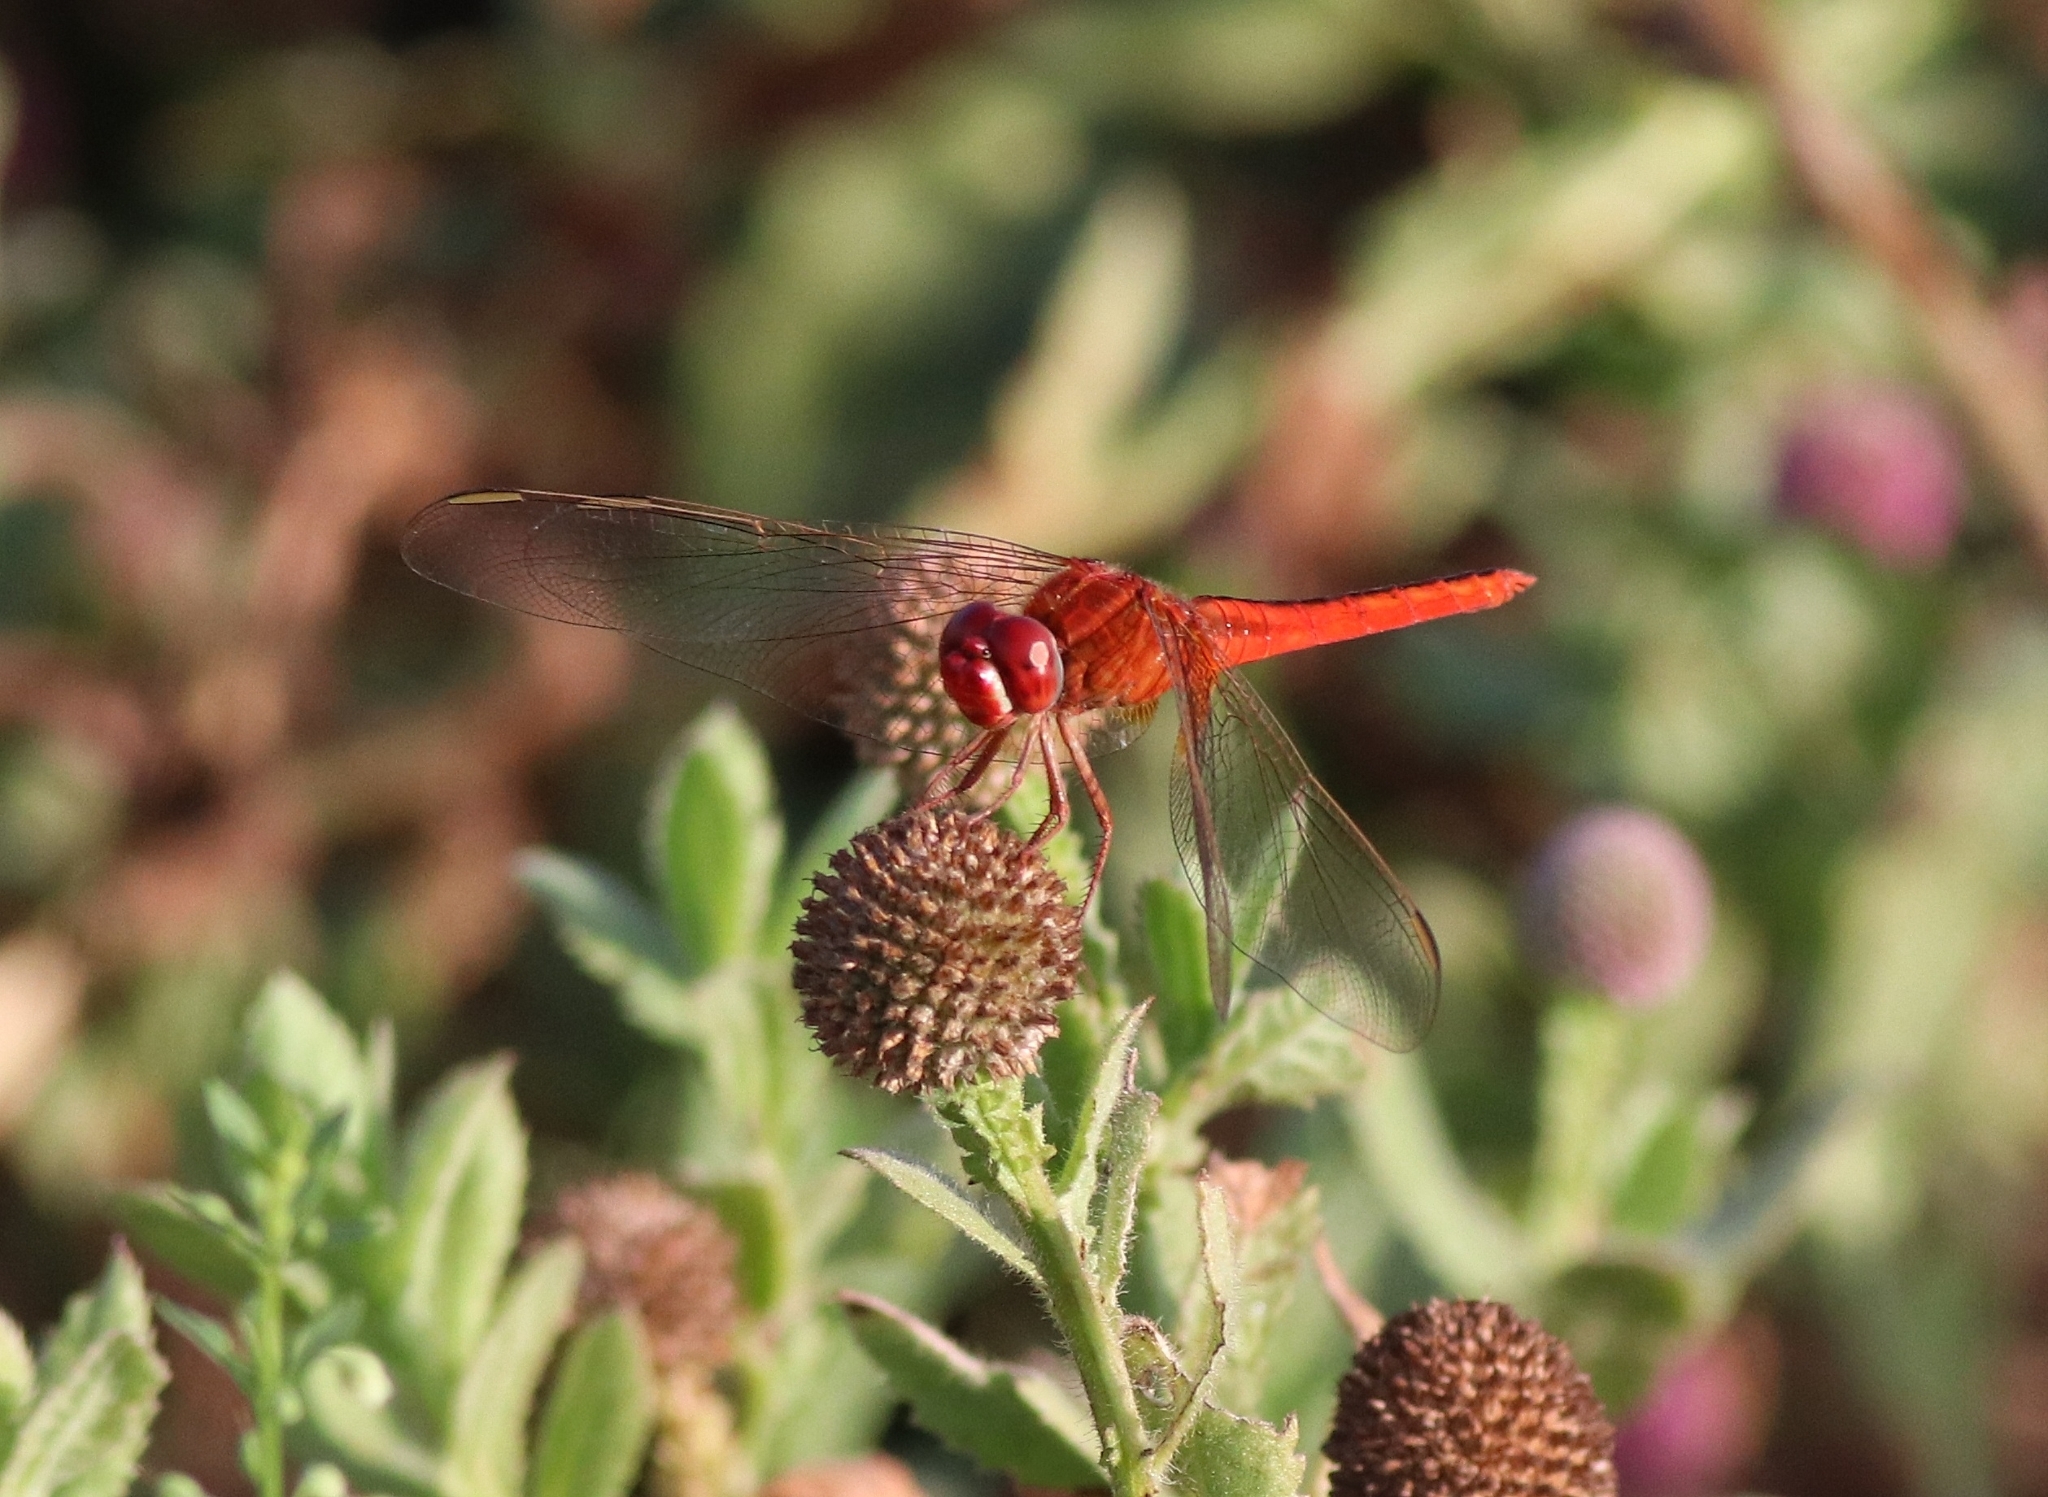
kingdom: Animalia
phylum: Arthropoda
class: Insecta
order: Odonata
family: Libellulidae
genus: Crocothemis
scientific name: Crocothemis servilia
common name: Scarlet skimmer
